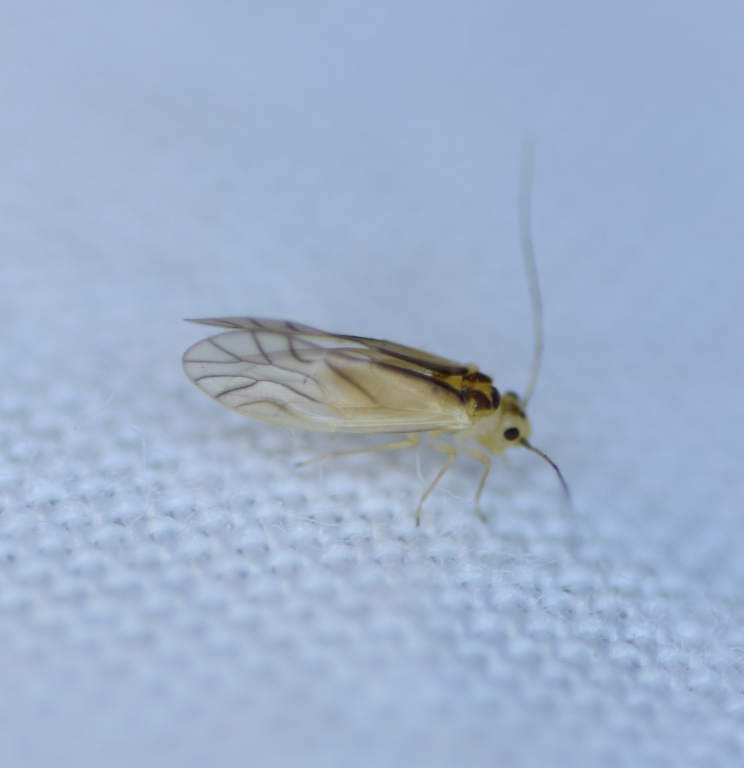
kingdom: Animalia
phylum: Arthropoda
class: Insecta
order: Psocodea
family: Caeciliusidae
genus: Valenzuela
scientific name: Valenzuela flavidus
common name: Yellow barklouse
